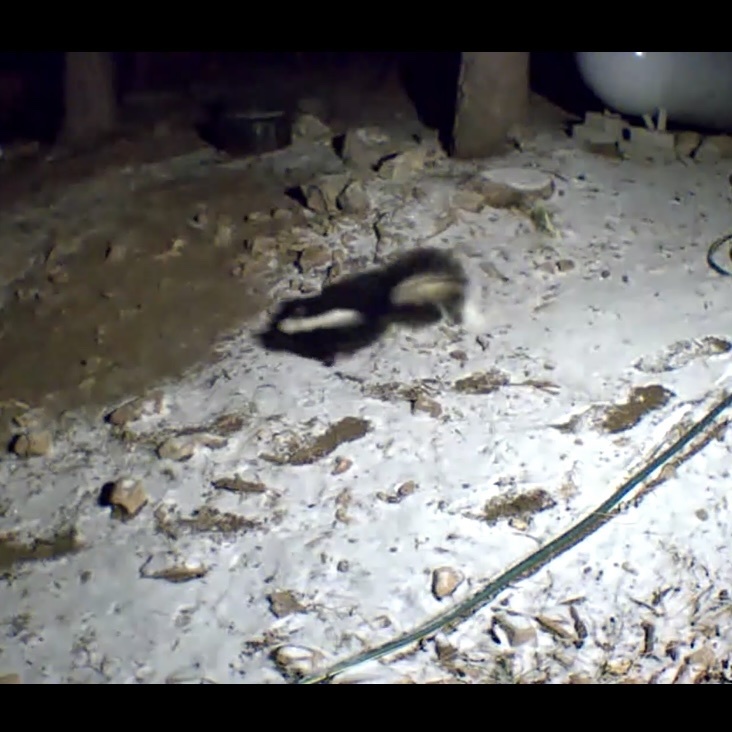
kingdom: Animalia
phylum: Chordata
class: Mammalia
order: Carnivora
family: Mephitidae
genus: Mephitis
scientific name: Mephitis mephitis
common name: Striped skunk
